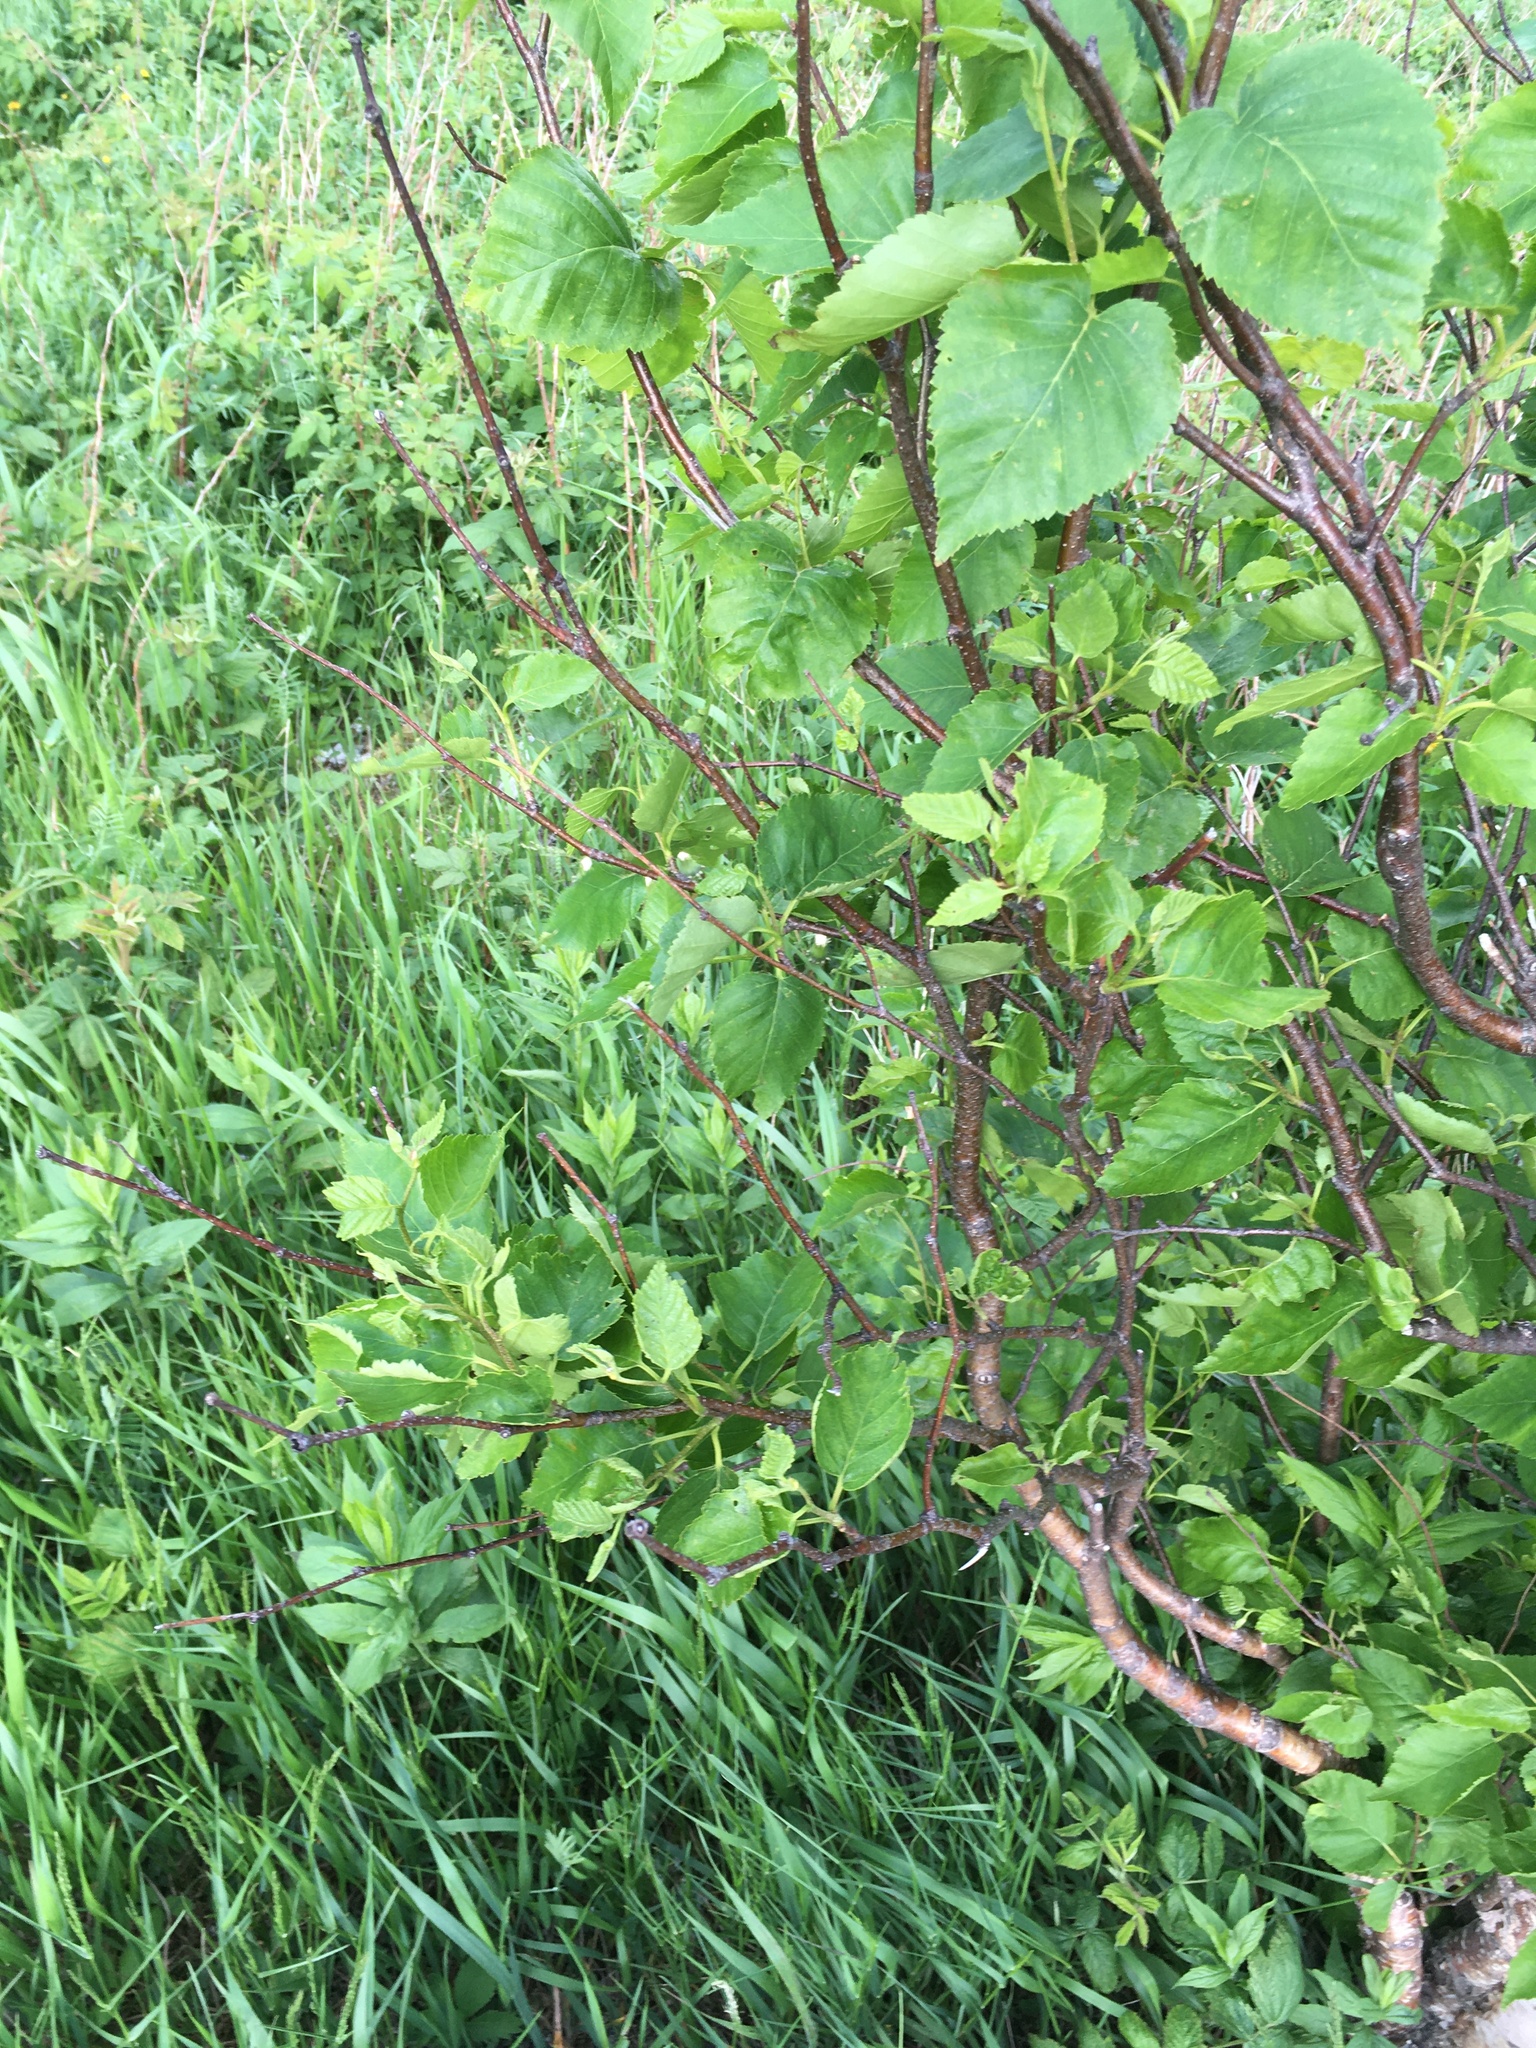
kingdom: Plantae
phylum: Tracheophyta
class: Magnoliopsida
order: Fagales
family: Betulaceae
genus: Betula
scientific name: Betula cordifolia
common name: Mountain white birch
